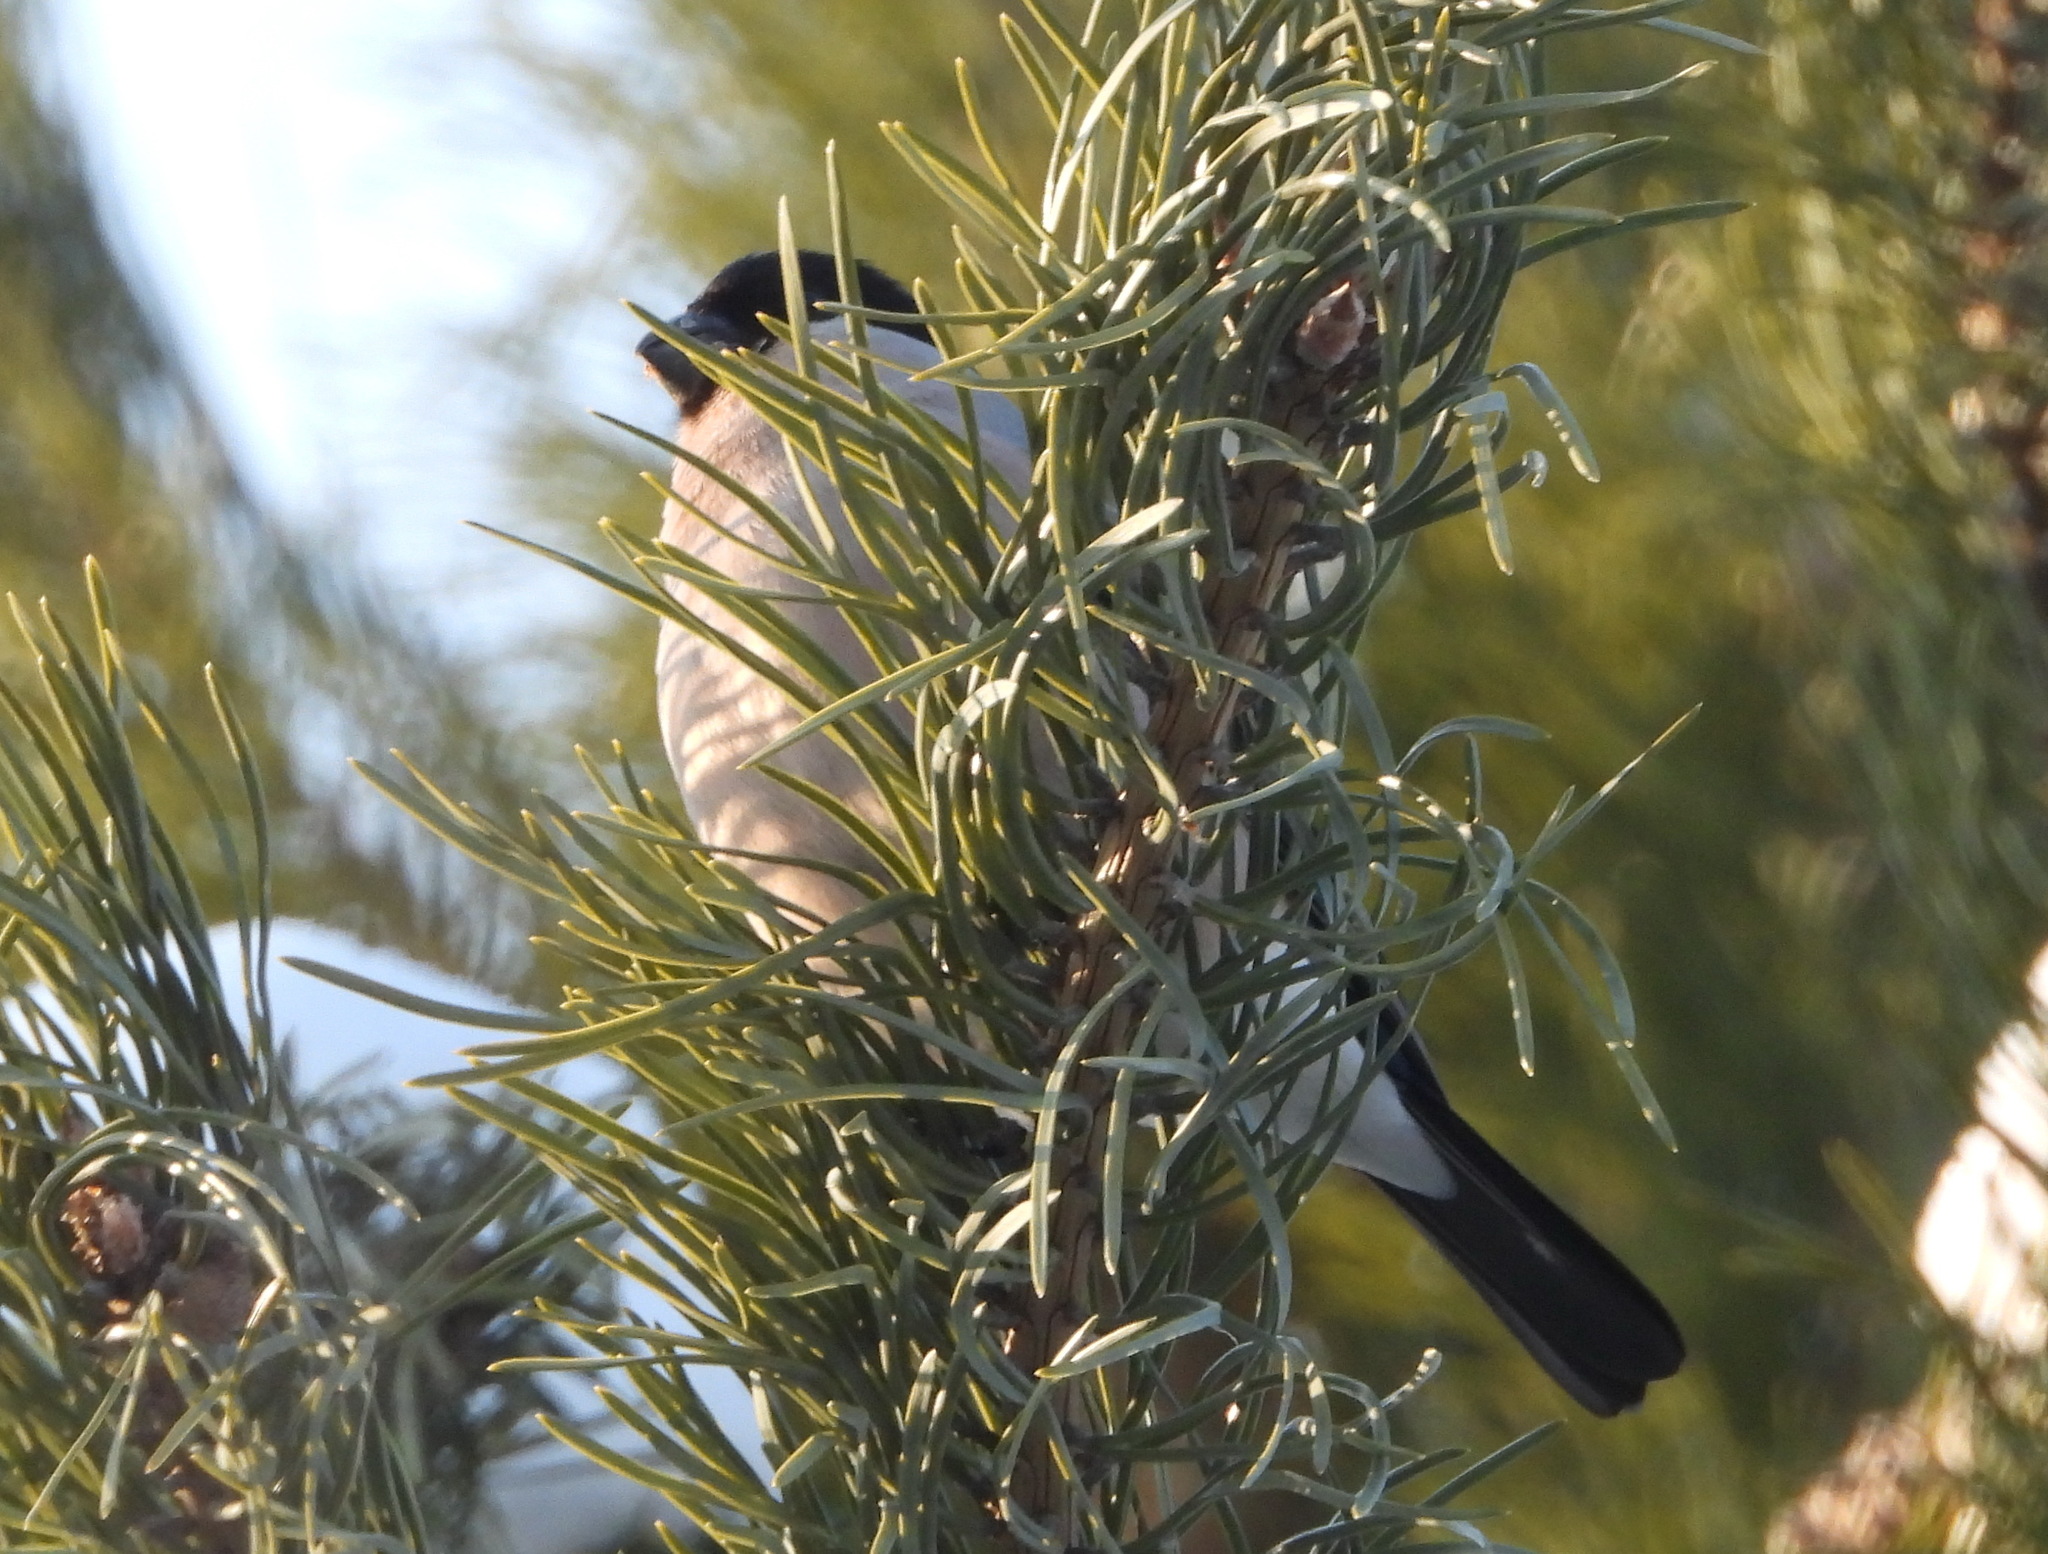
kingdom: Animalia
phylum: Chordata
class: Aves
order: Passeriformes
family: Fringillidae
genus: Pyrrhula
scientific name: Pyrrhula pyrrhula
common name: Eurasian bullfinch
